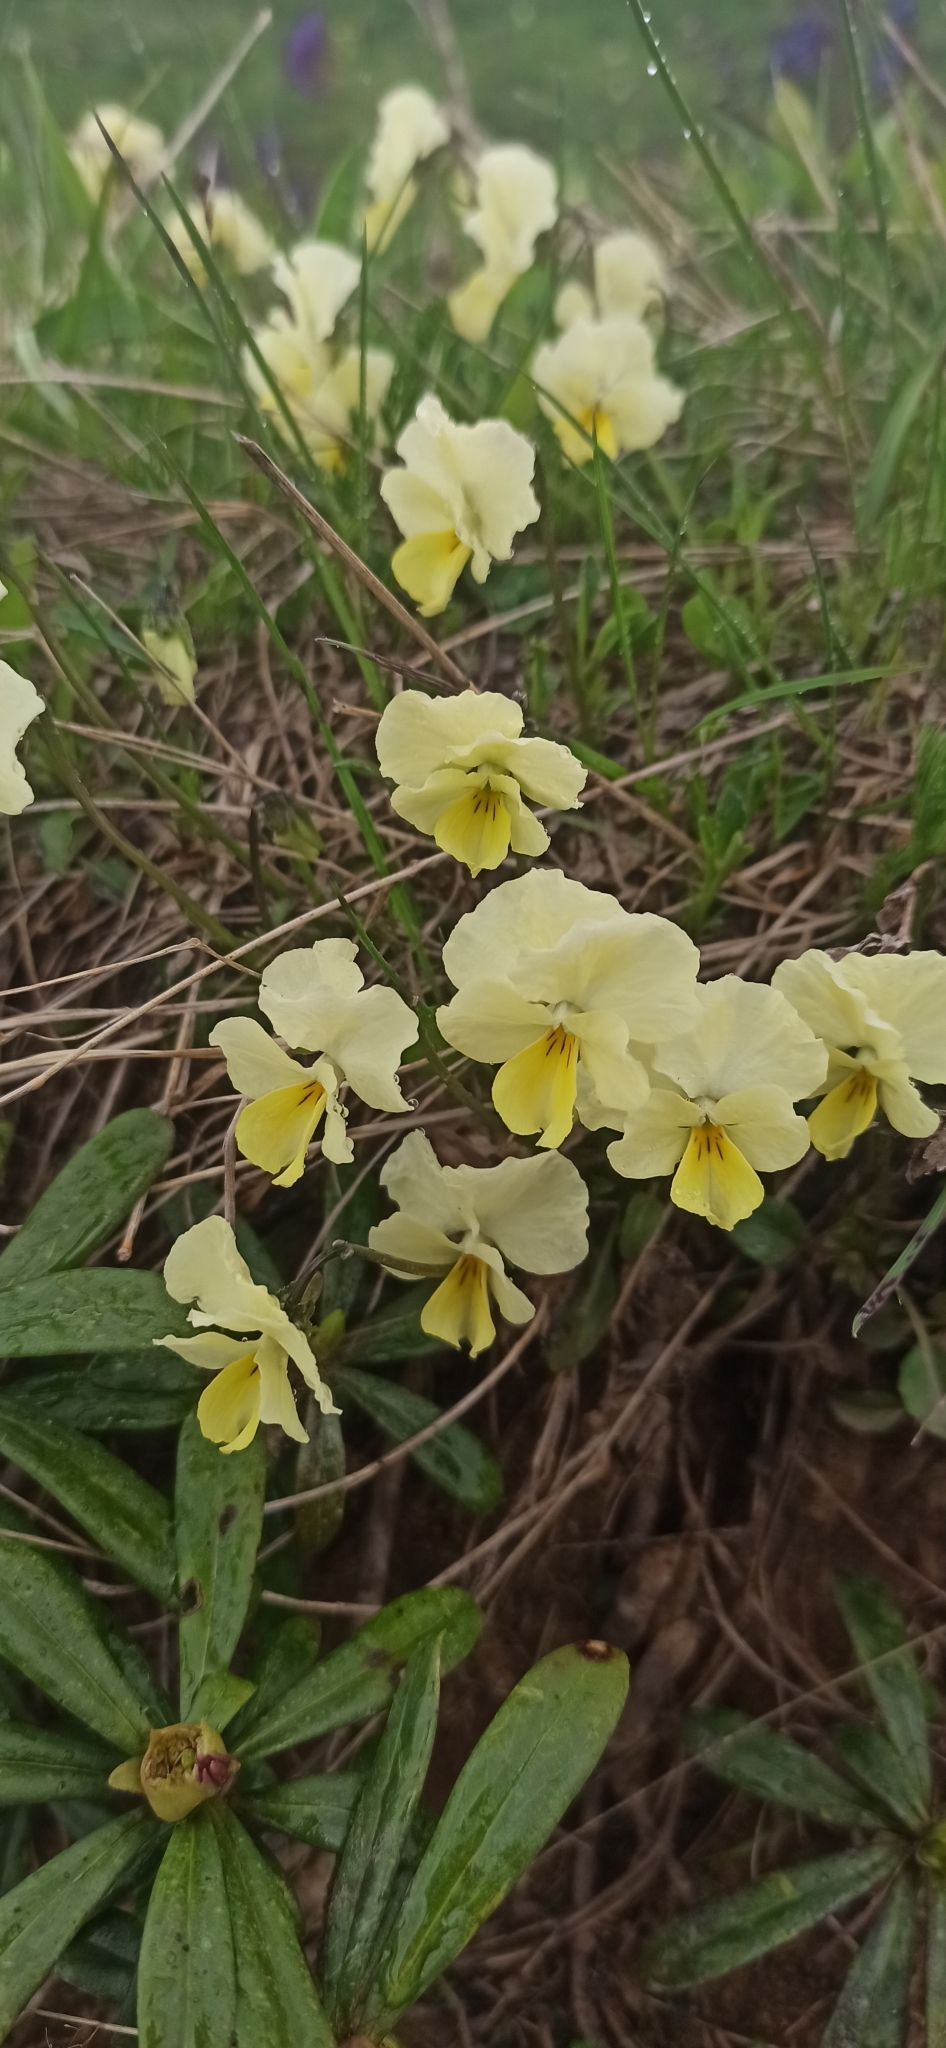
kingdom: Plantae
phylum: Tracheophyta
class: Magnoliopsida
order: Malpighiales
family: Violaceae
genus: Viola
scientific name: Viola oreades
